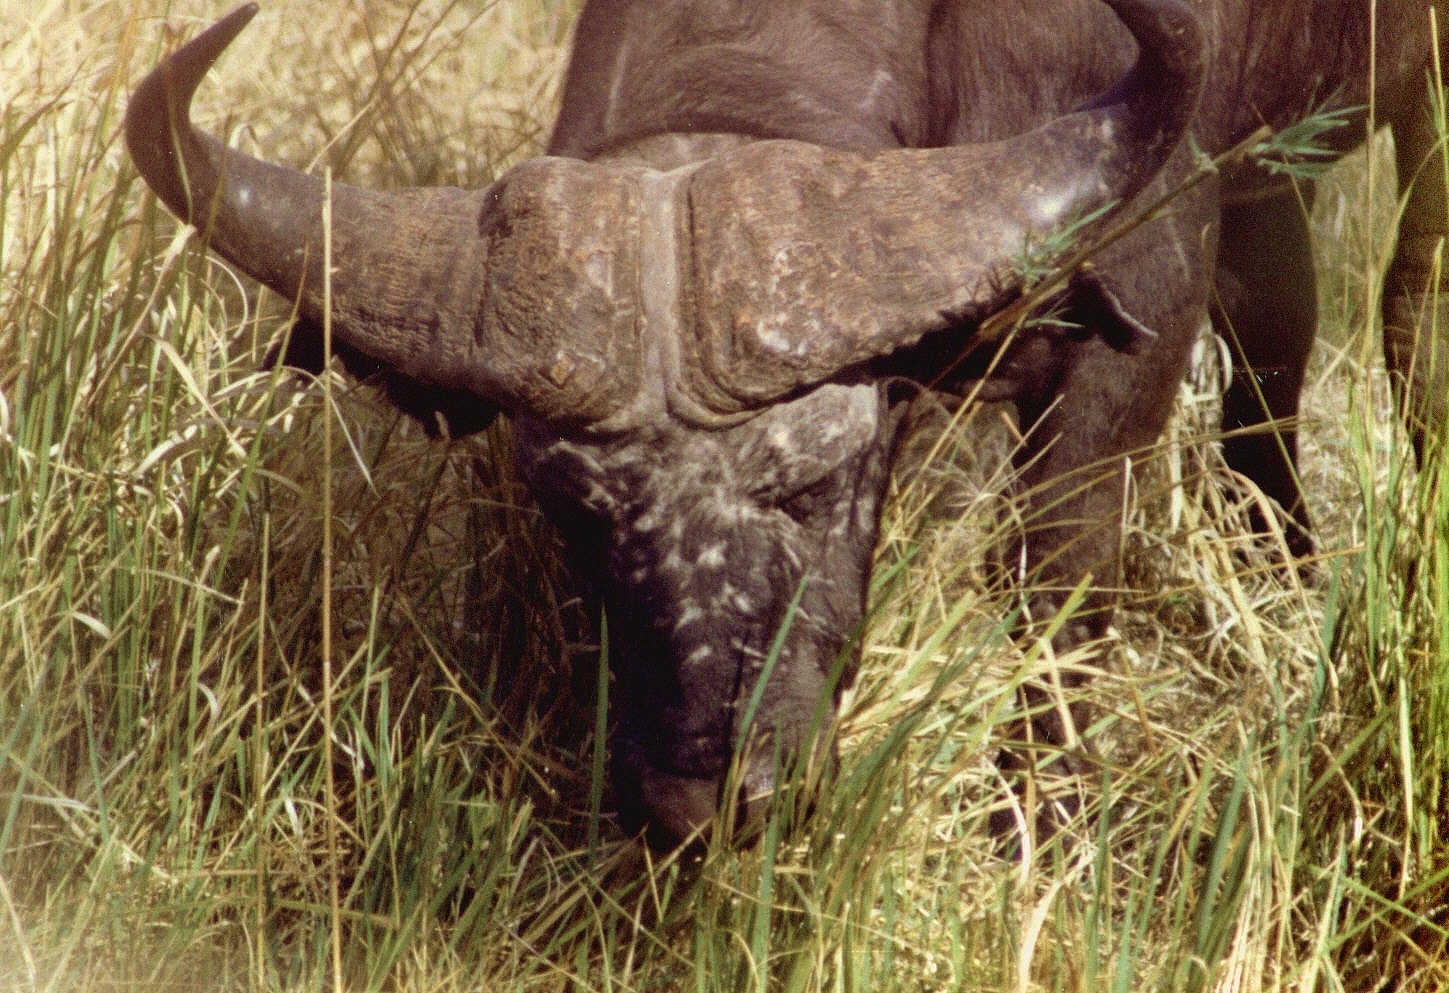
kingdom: Animalia
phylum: Chordata
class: Mammalia
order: Artiodactyla
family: Bovidae
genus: Syncerus
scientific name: Syncerus caffer
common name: African buffalo
